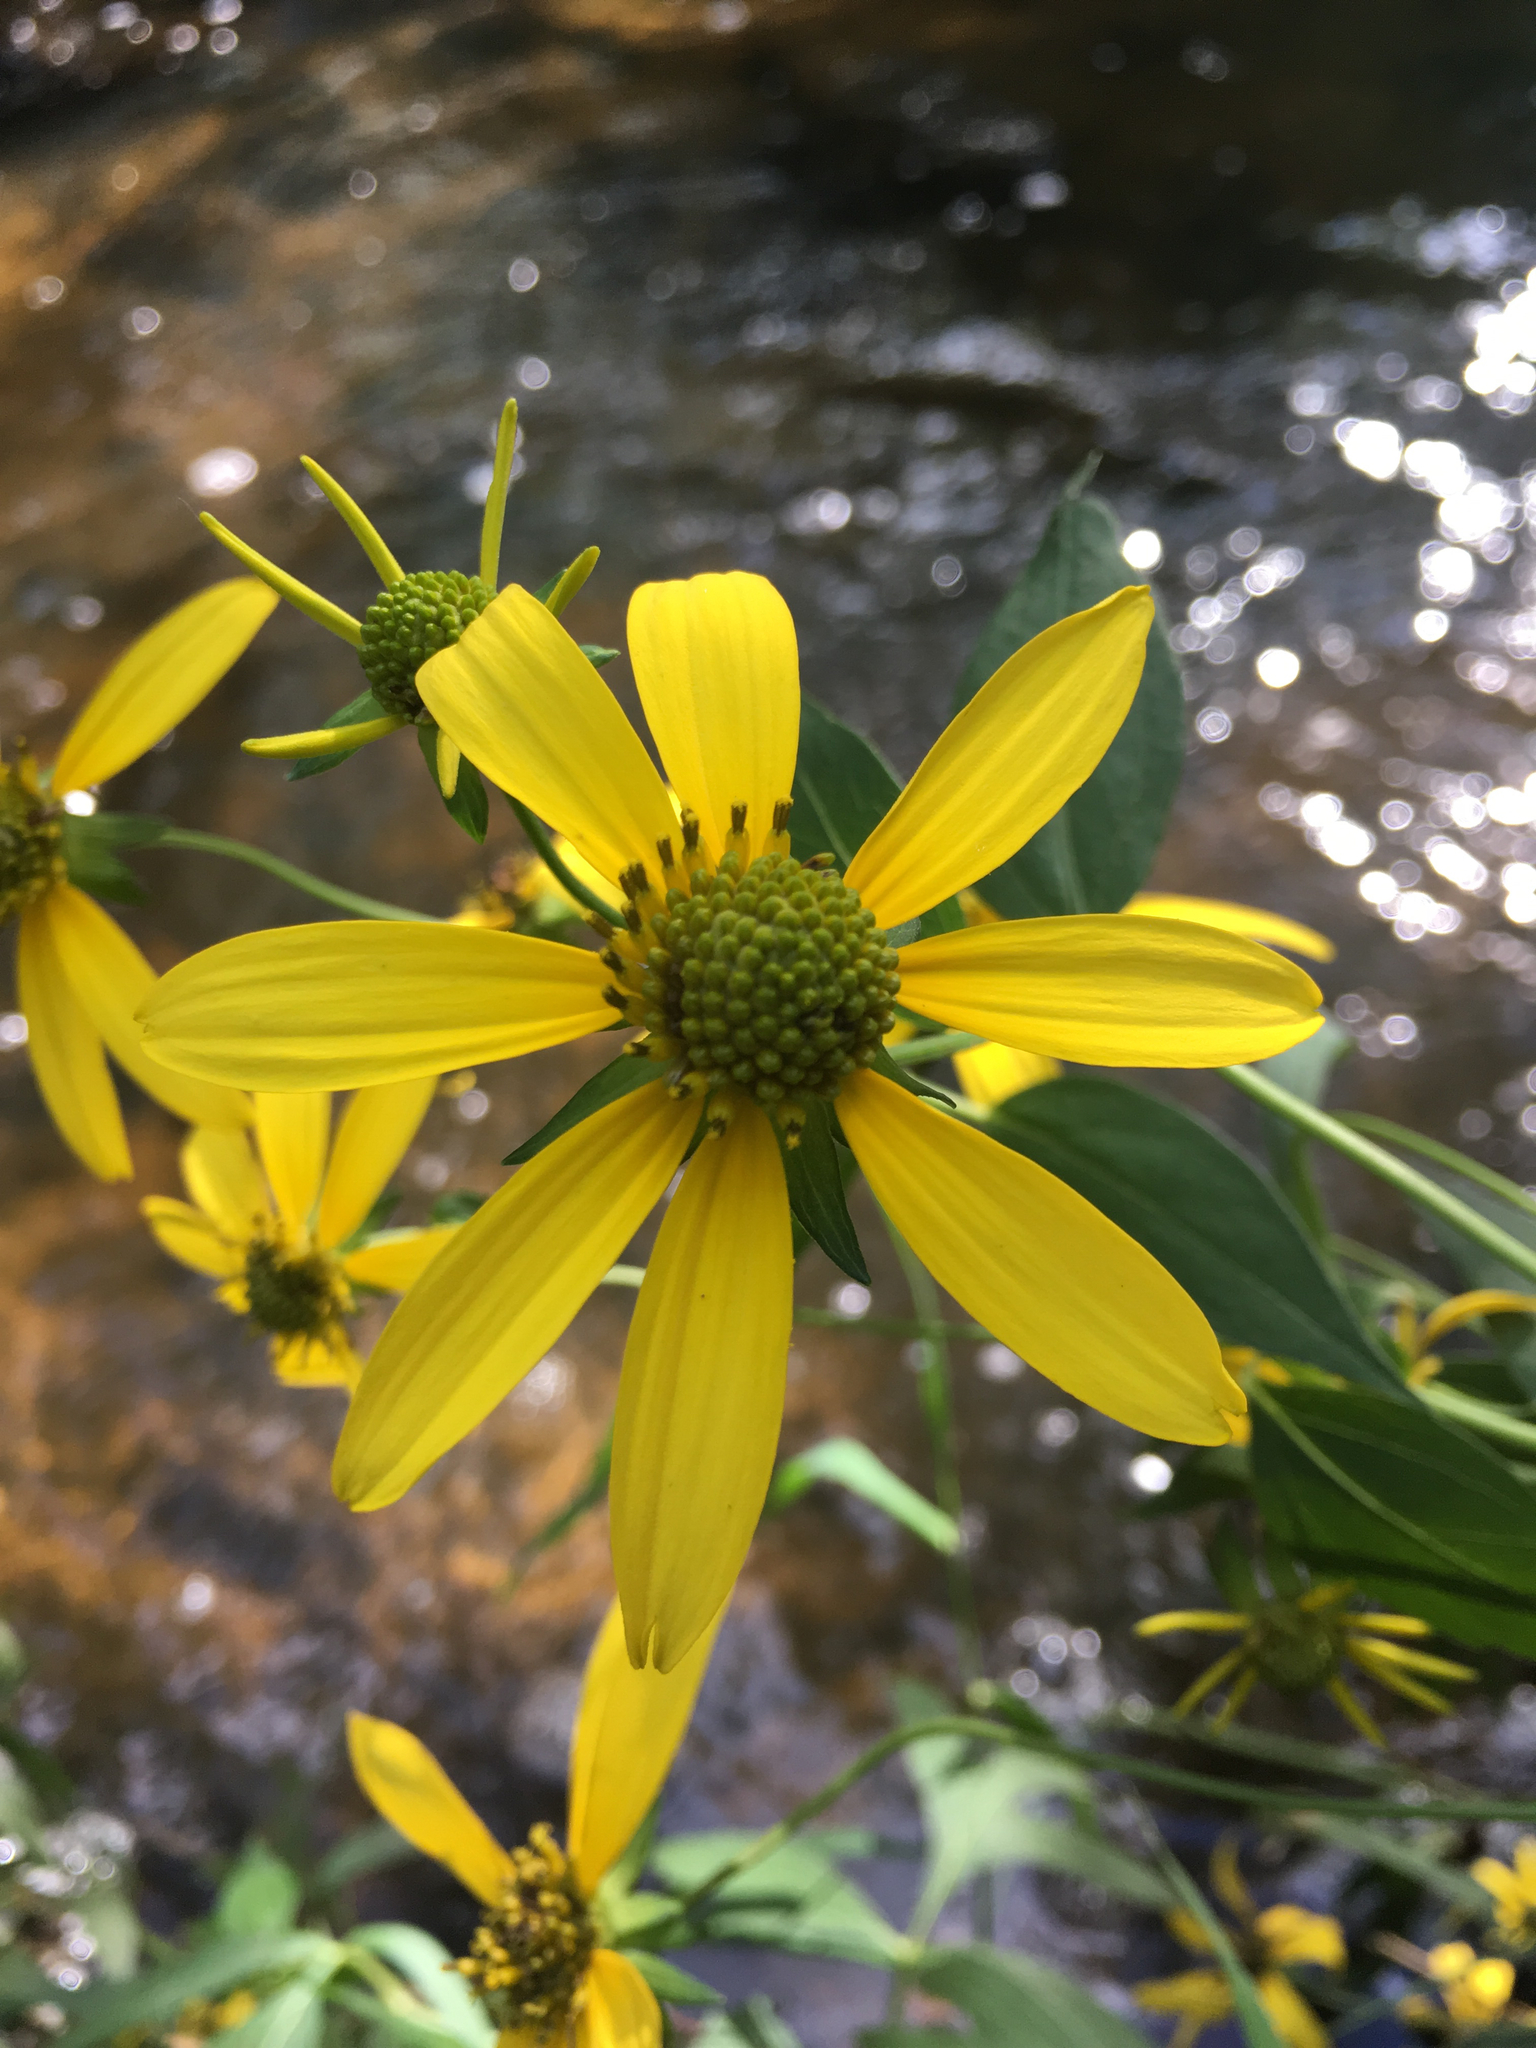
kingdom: Plantae
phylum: Tracheophyta
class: Magnoliopsida
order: Asterales
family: Asteraceae
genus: Rudbeckia
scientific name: Rudbeckia laciniata
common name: Coneflower
